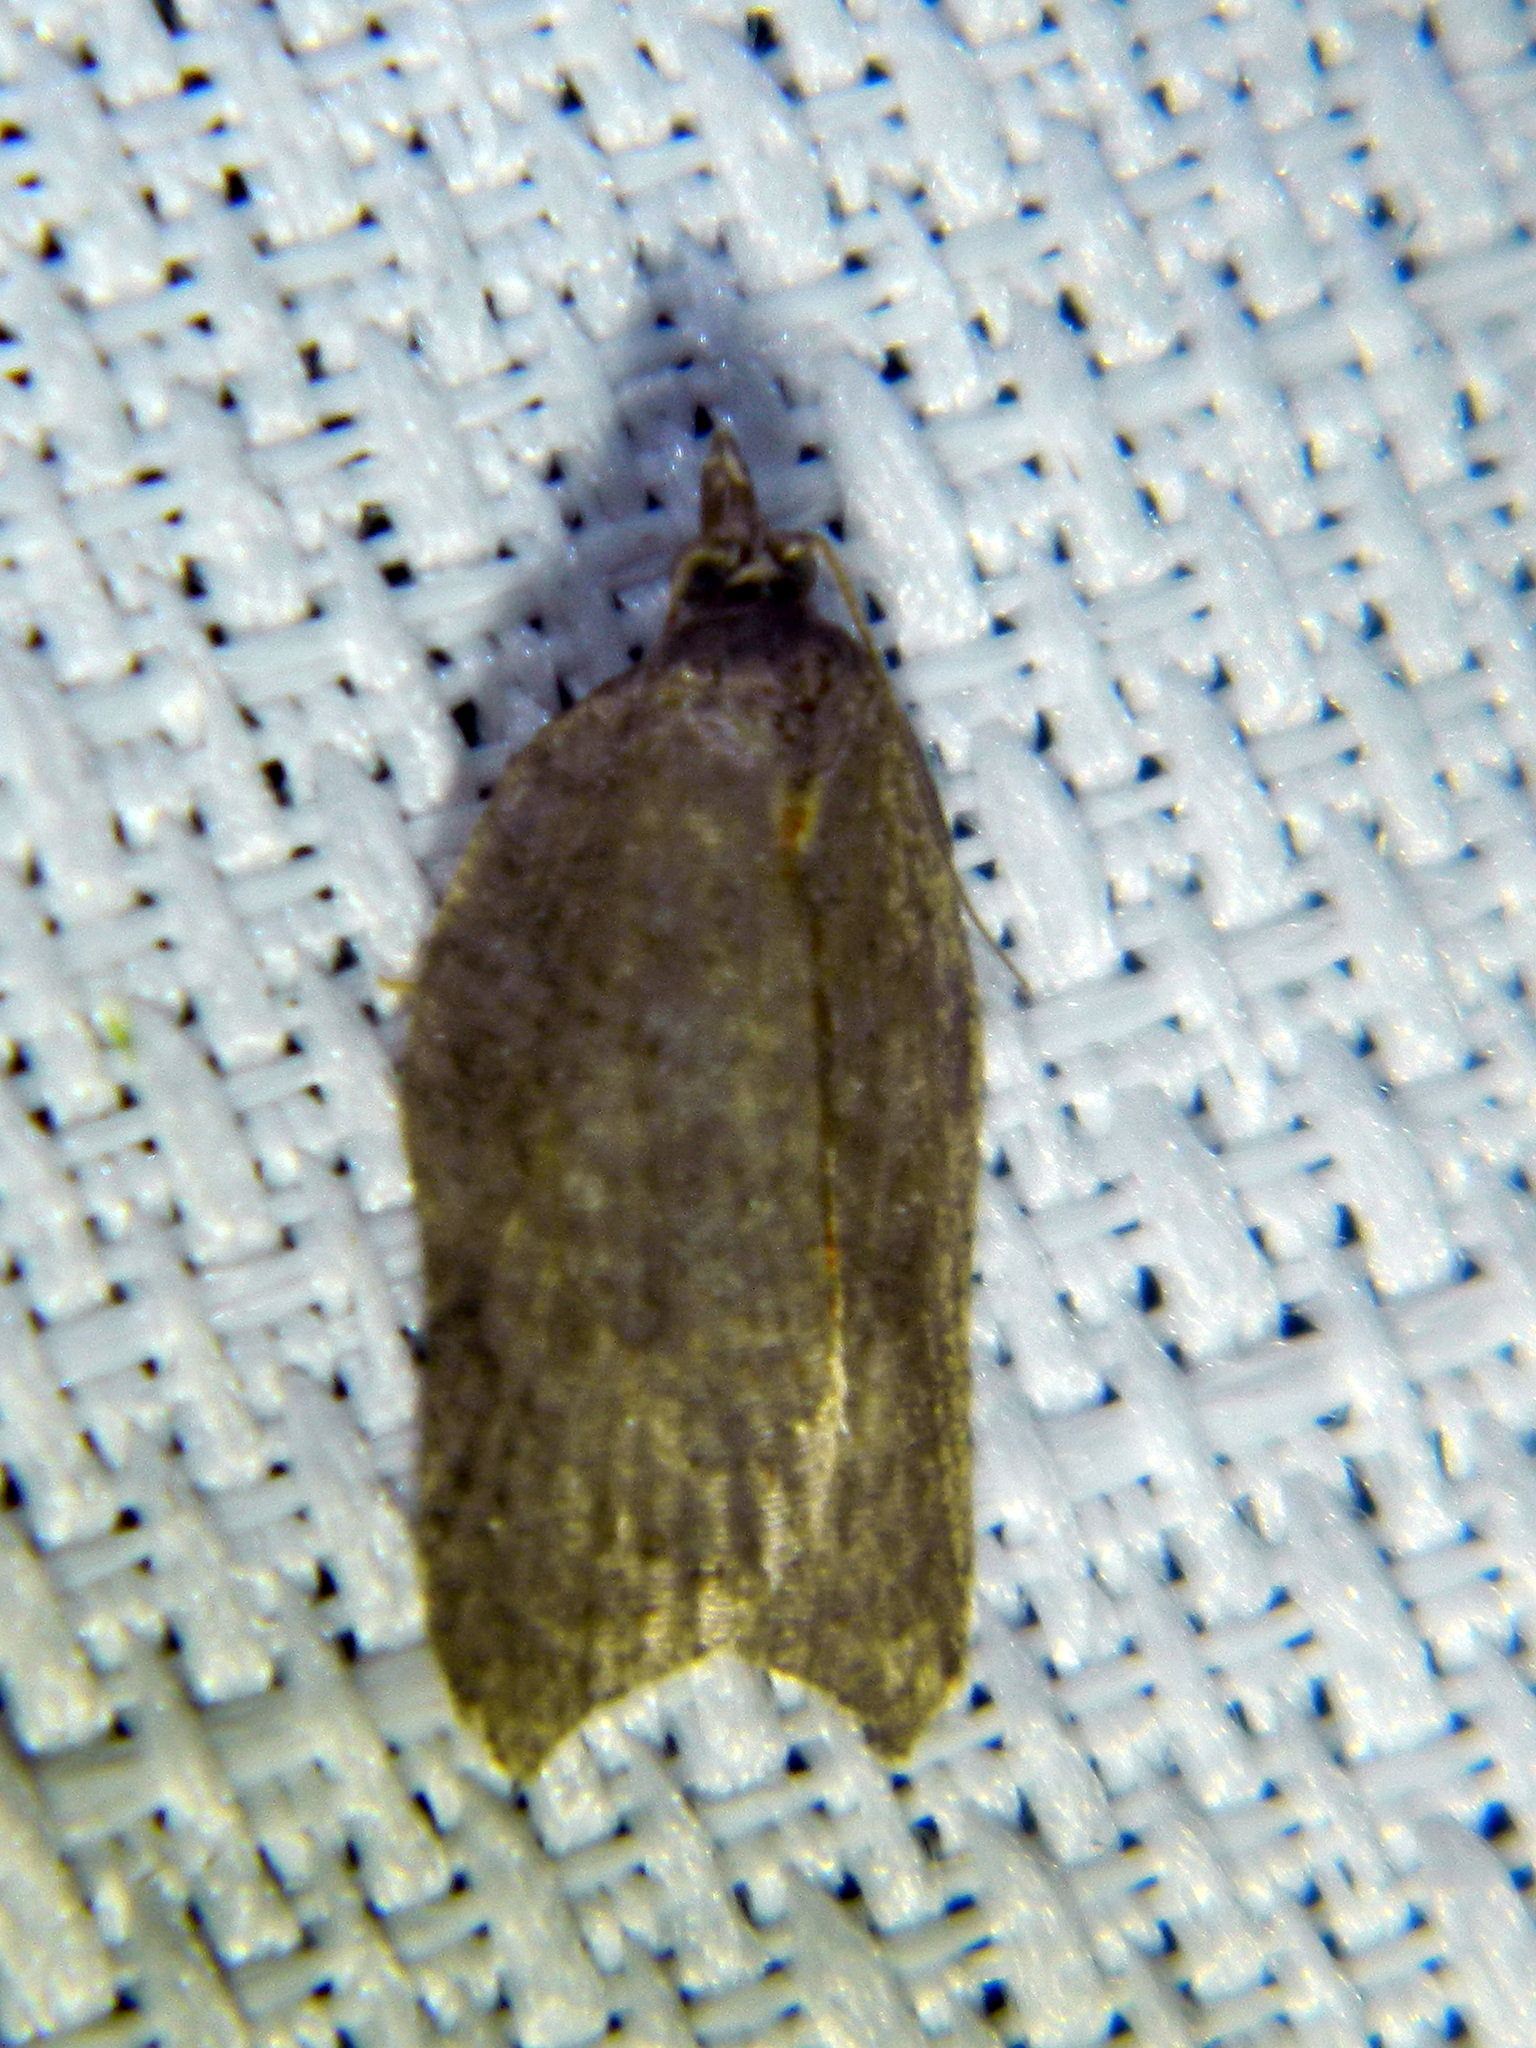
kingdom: Animalia
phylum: Arthropoda
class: Insecta
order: Lepidoptera
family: Tortricidae
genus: Acleris
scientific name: Acleris effractana
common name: Hook-winged tortrix moth
